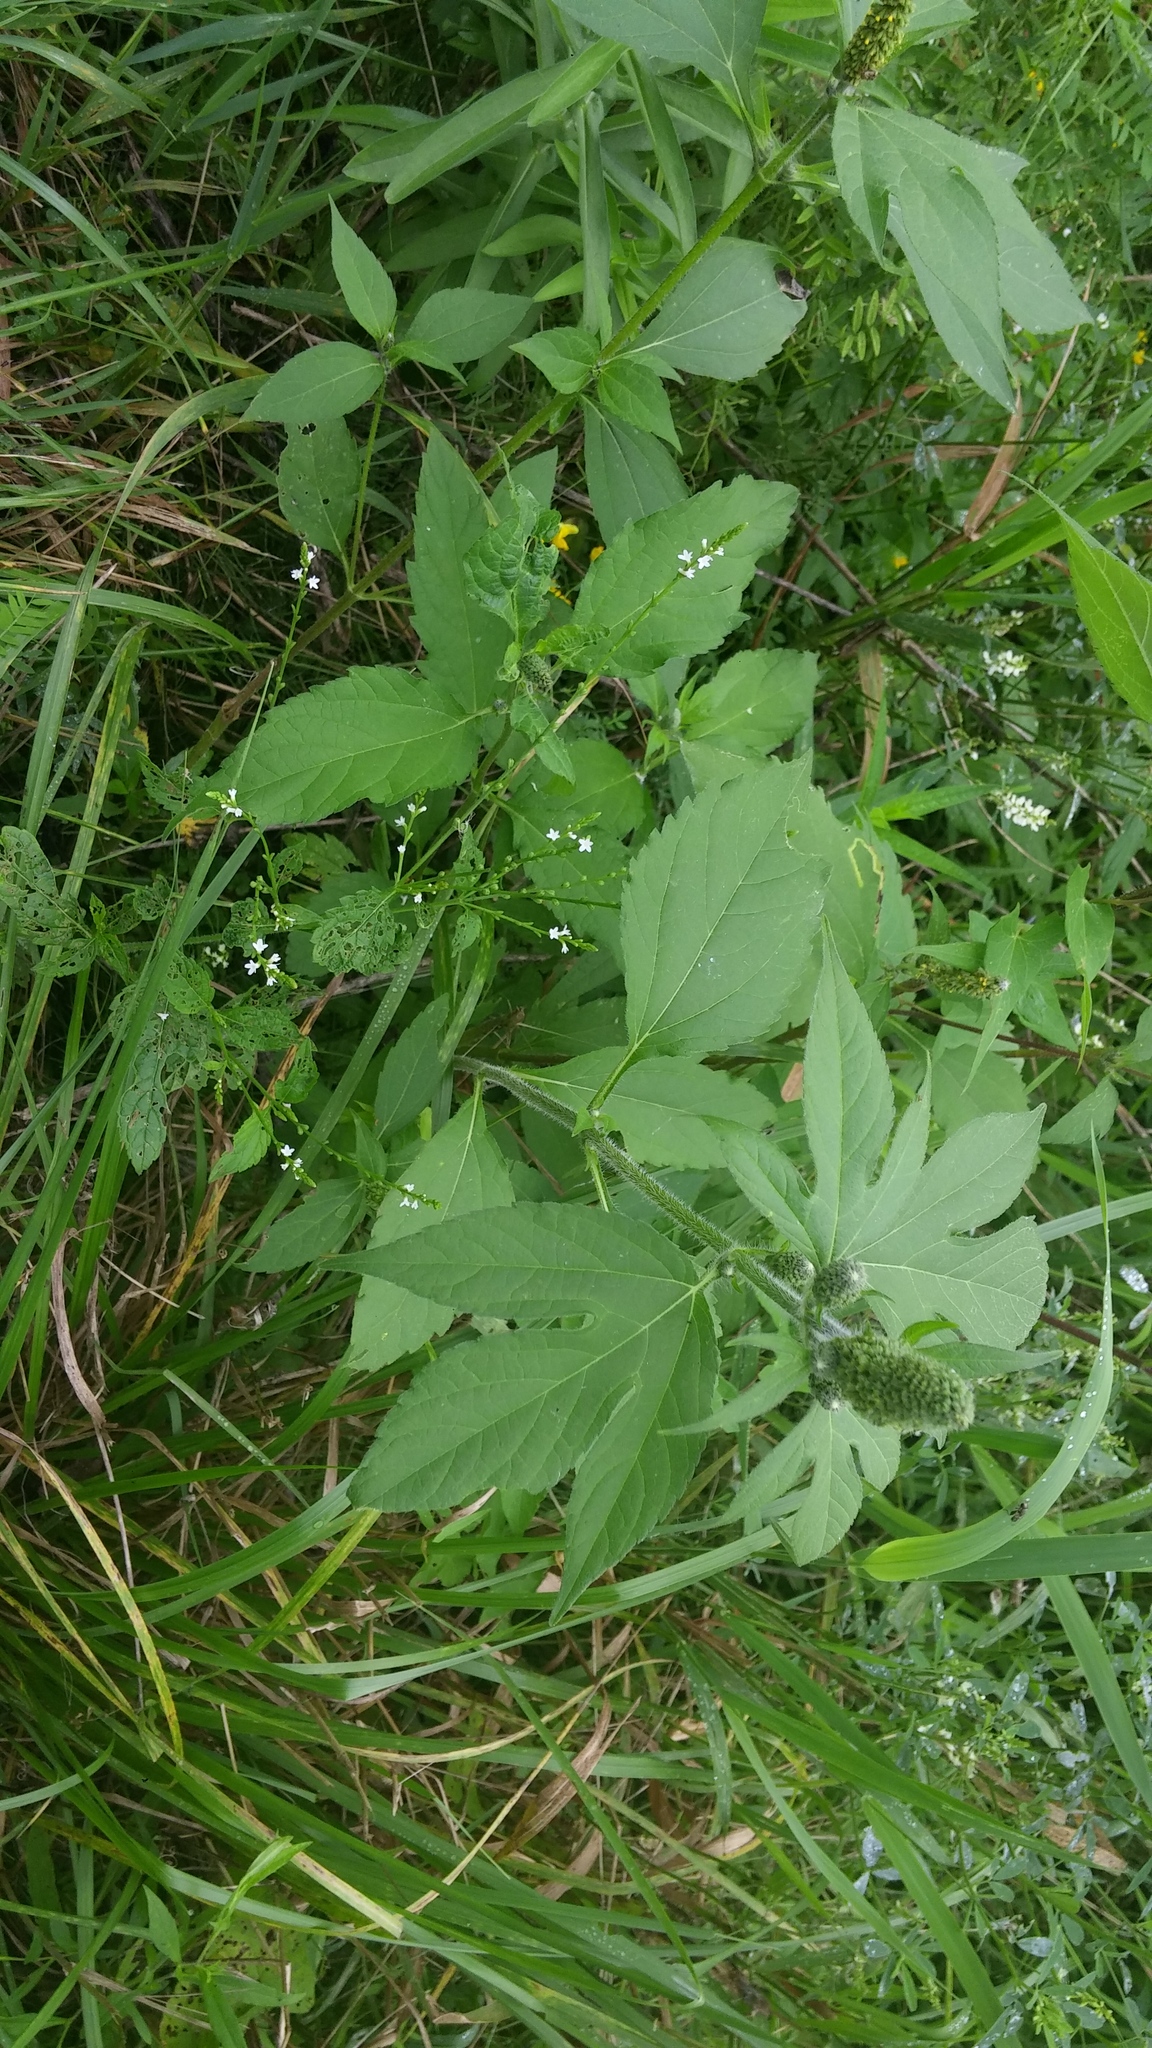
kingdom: Plantae
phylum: Tracheophyta
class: Magnoliopsida
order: Asterales
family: Asteraceae
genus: Ambrosia
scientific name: Ambrosia trifida
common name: Giant ragweed
